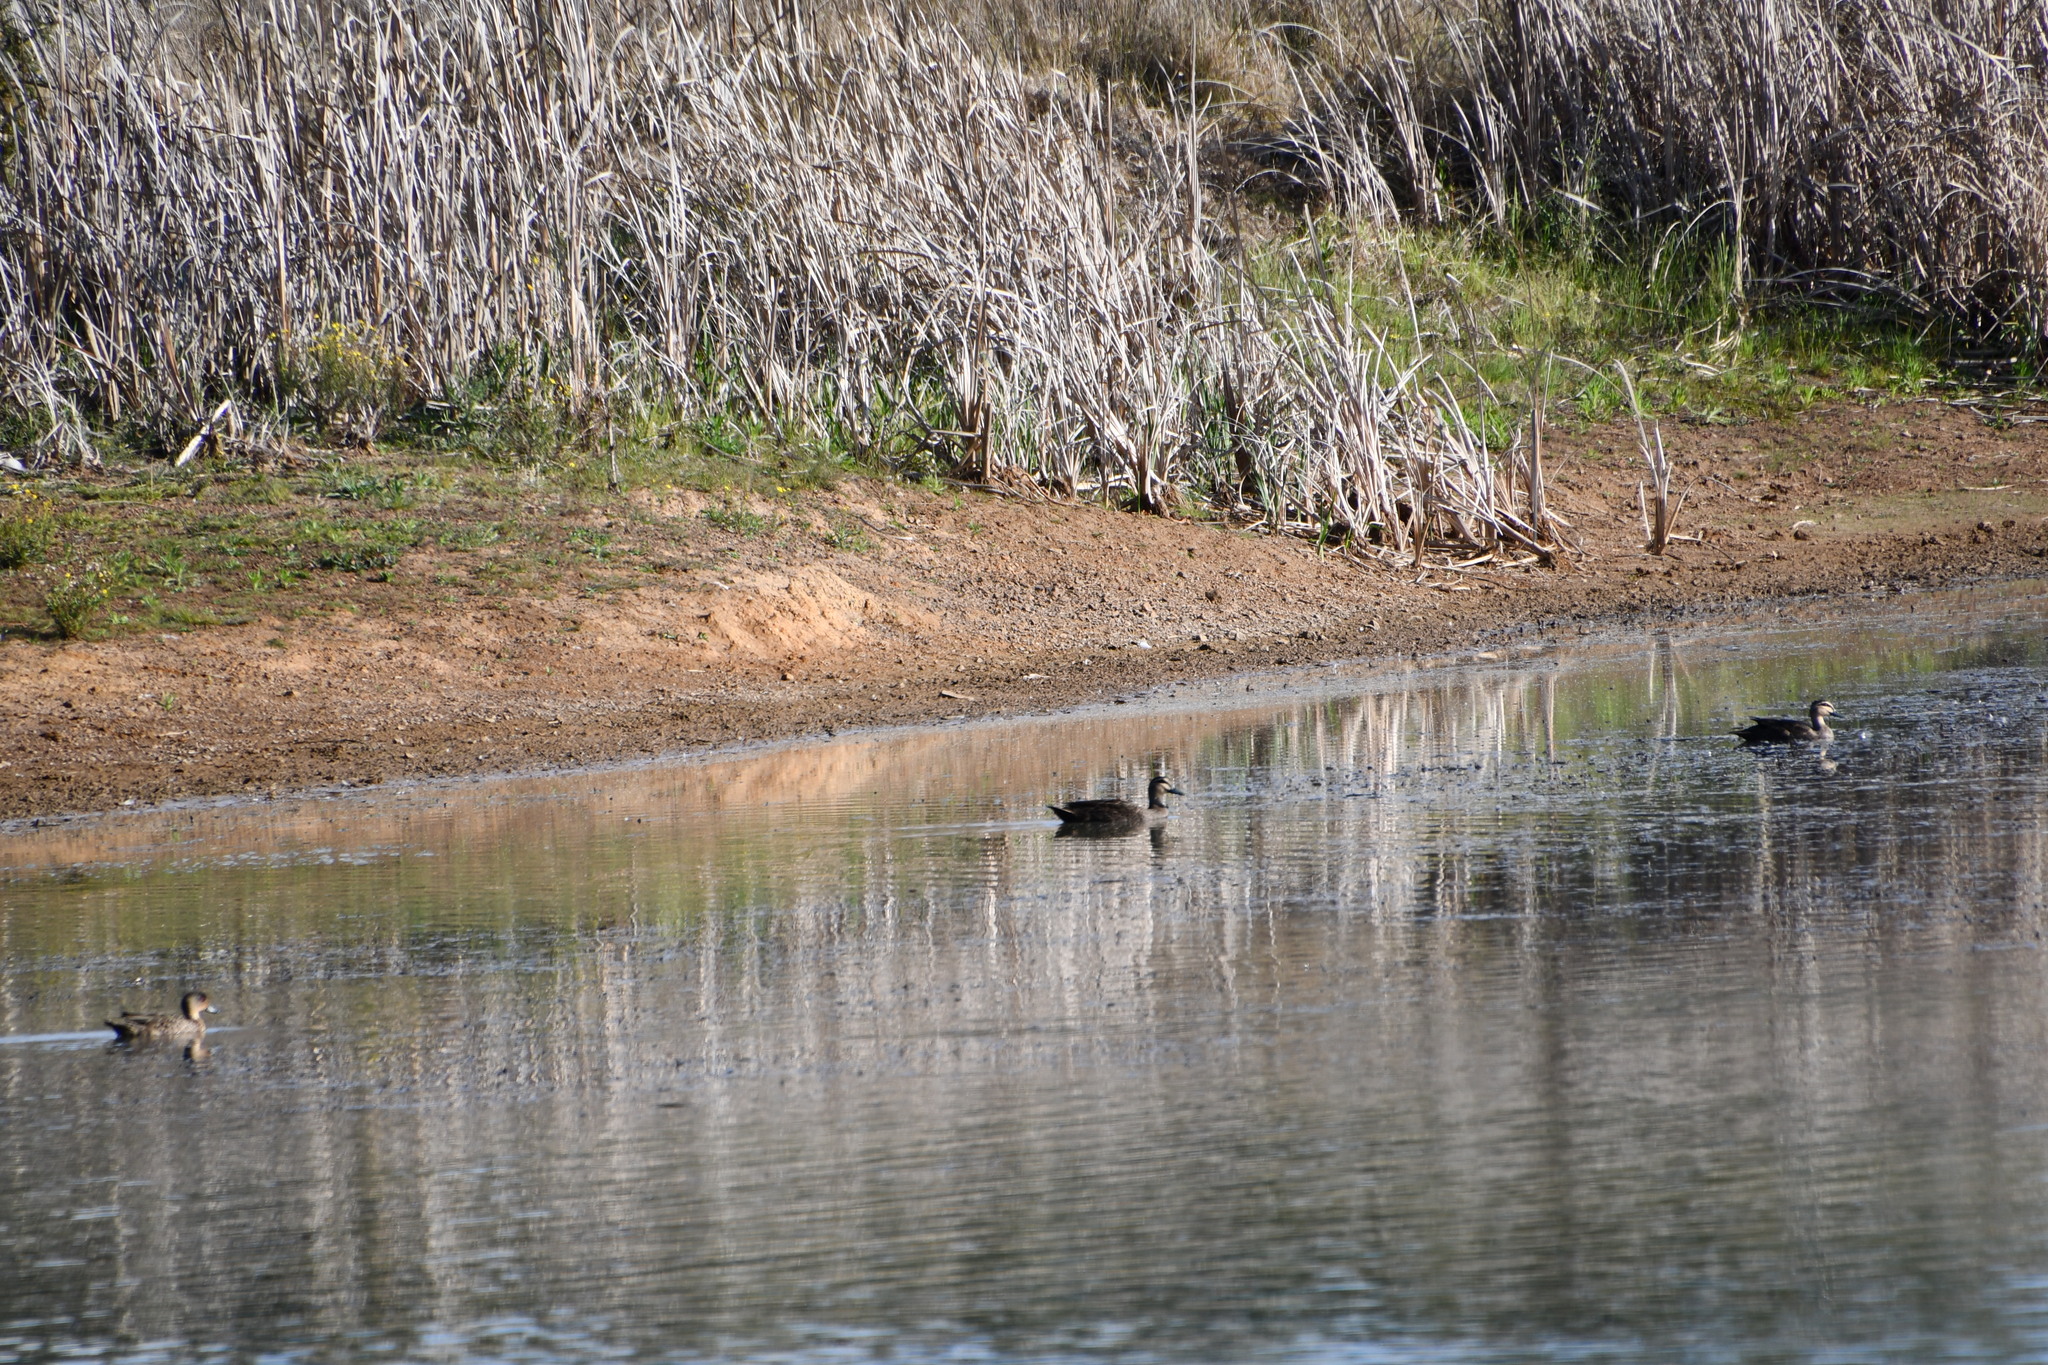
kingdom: Animalia
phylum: Chordata
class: Aves
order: Anseriformes
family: Anatidae
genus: Anas
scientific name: Anas superciliosa
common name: Pacific black duck
